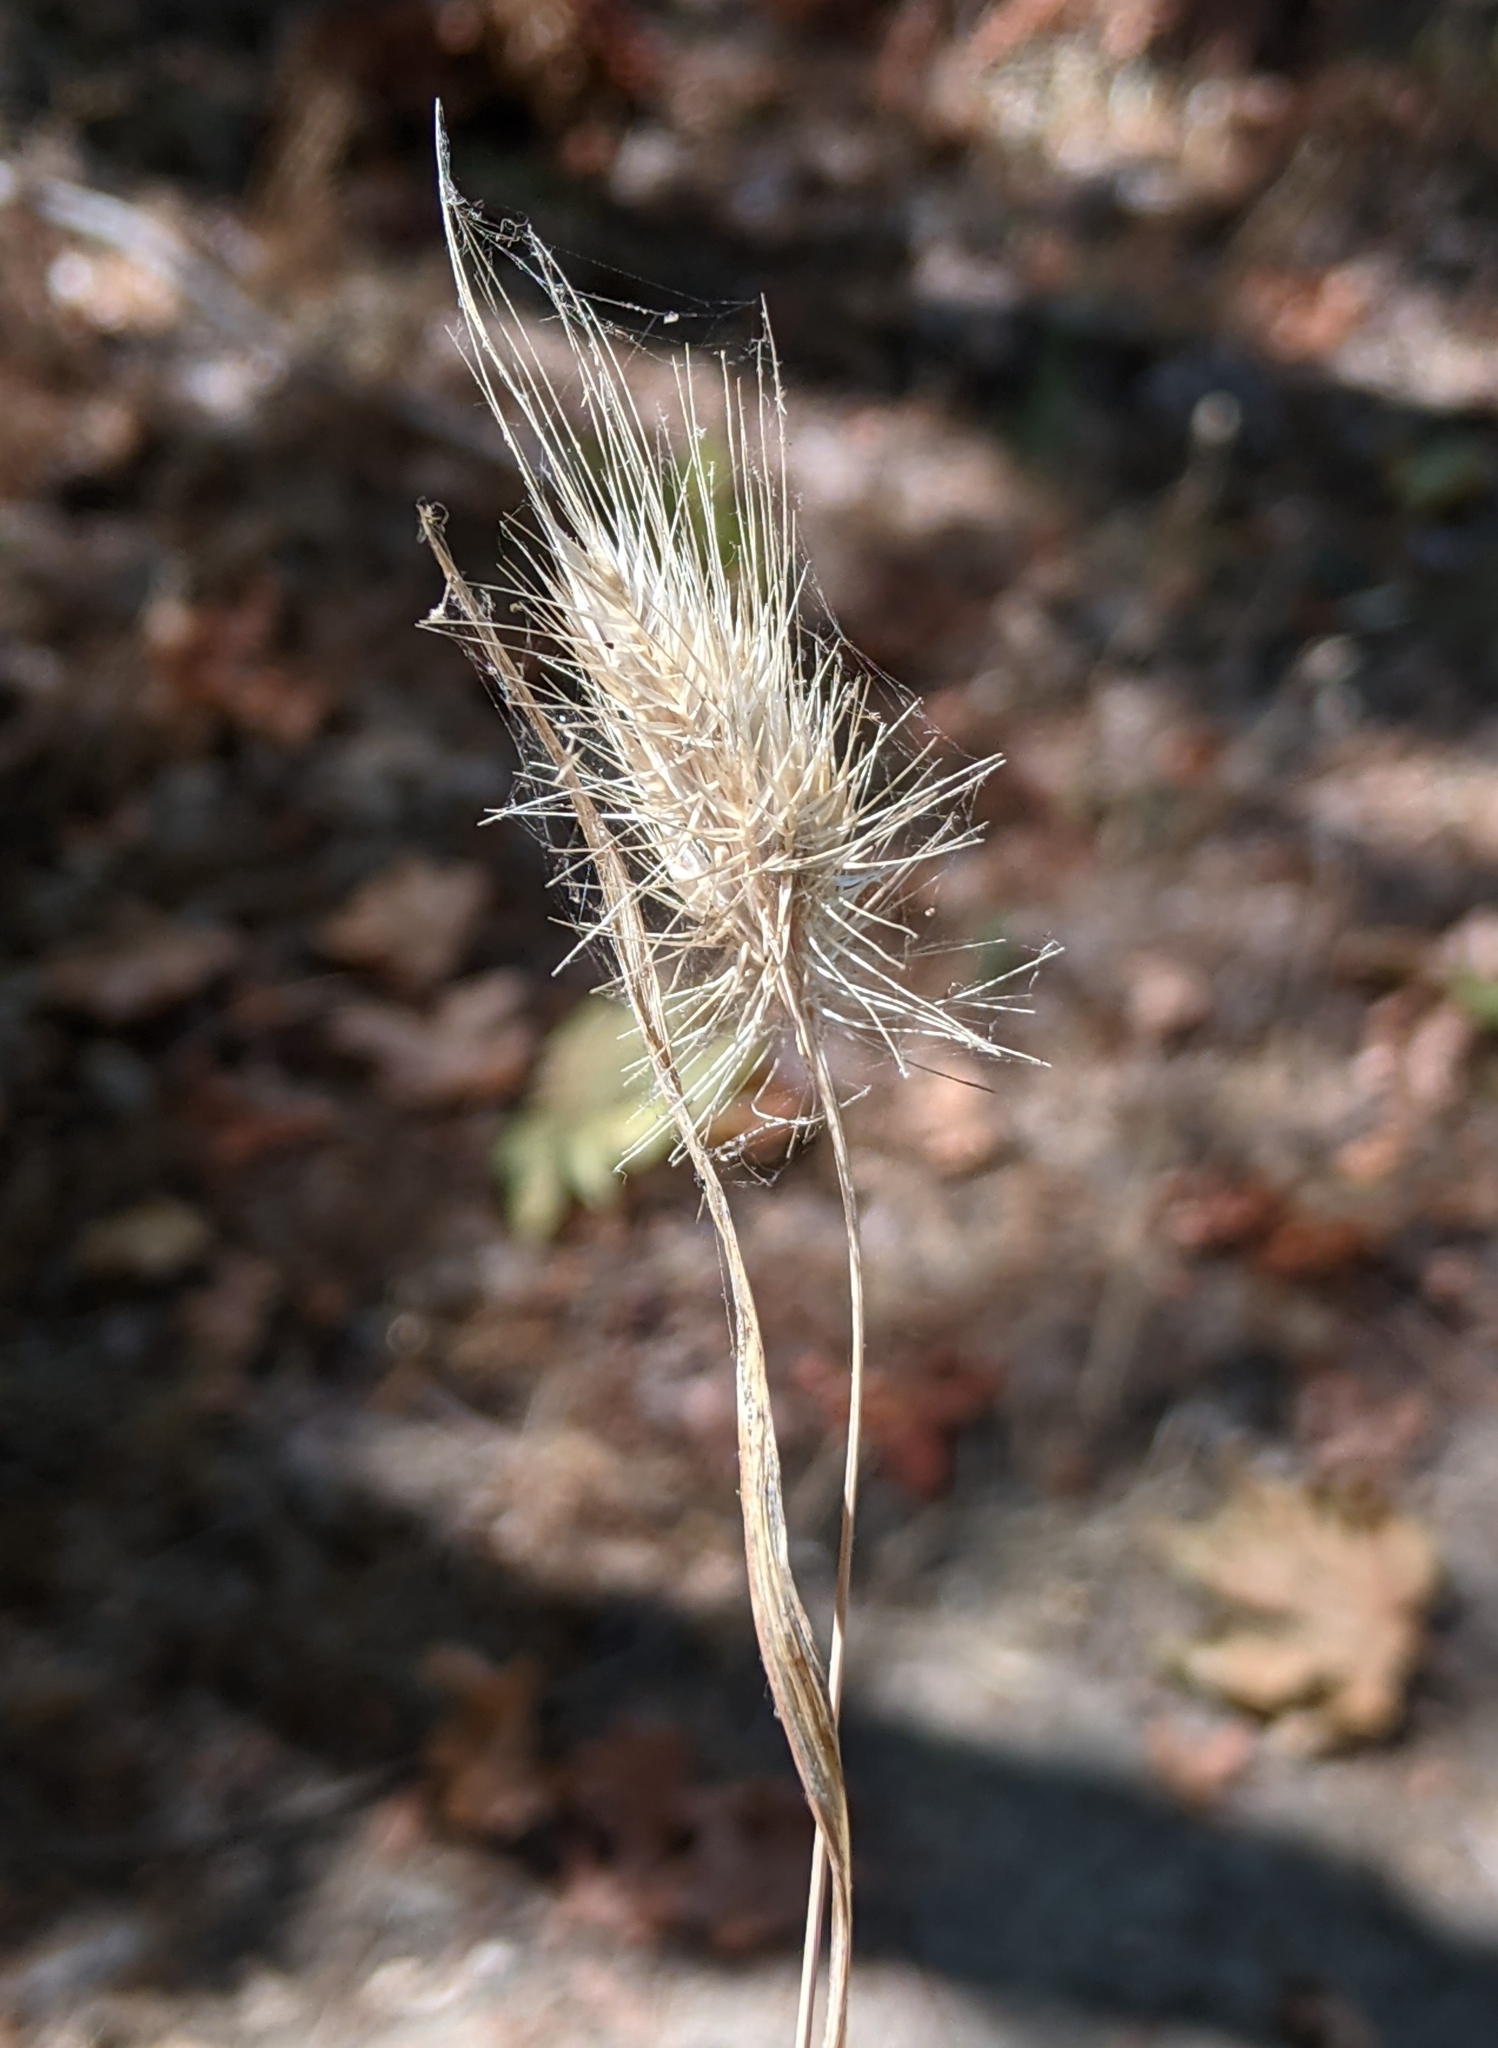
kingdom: Plantae
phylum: Tracheophyta
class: Liliopsida
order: Poales
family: Poaceae
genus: Cynosurus
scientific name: Cynosurus echinatus
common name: Rough dog's-tail
